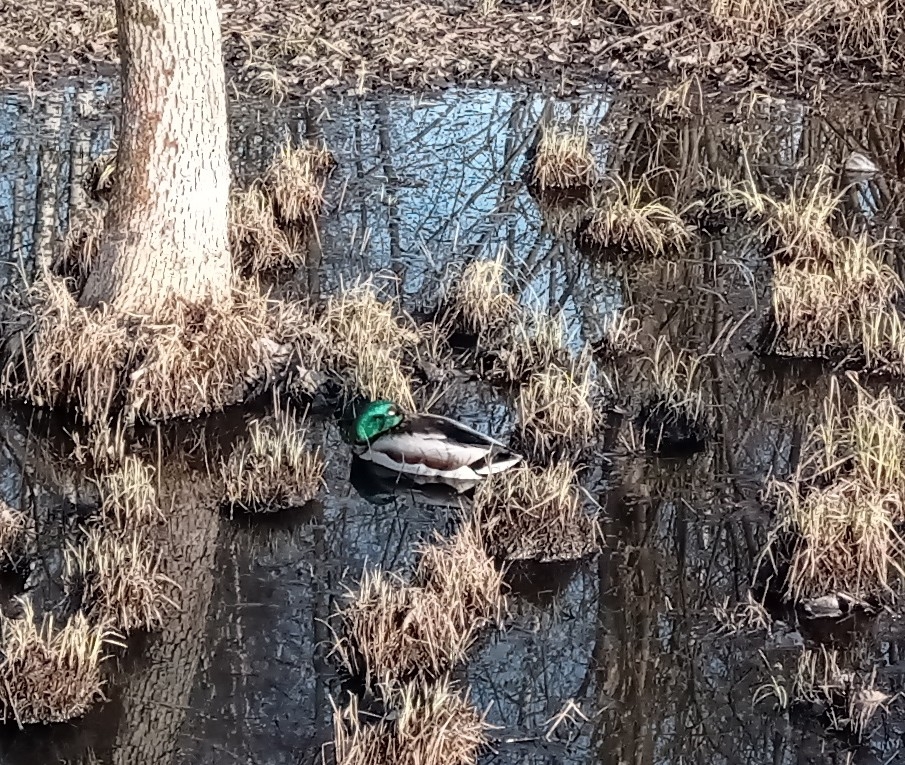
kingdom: Animalia
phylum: Chordata
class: Aves
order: Anseriformes
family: Anatidae
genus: Anas
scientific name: Anas platyrhynchos
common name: Mallard
